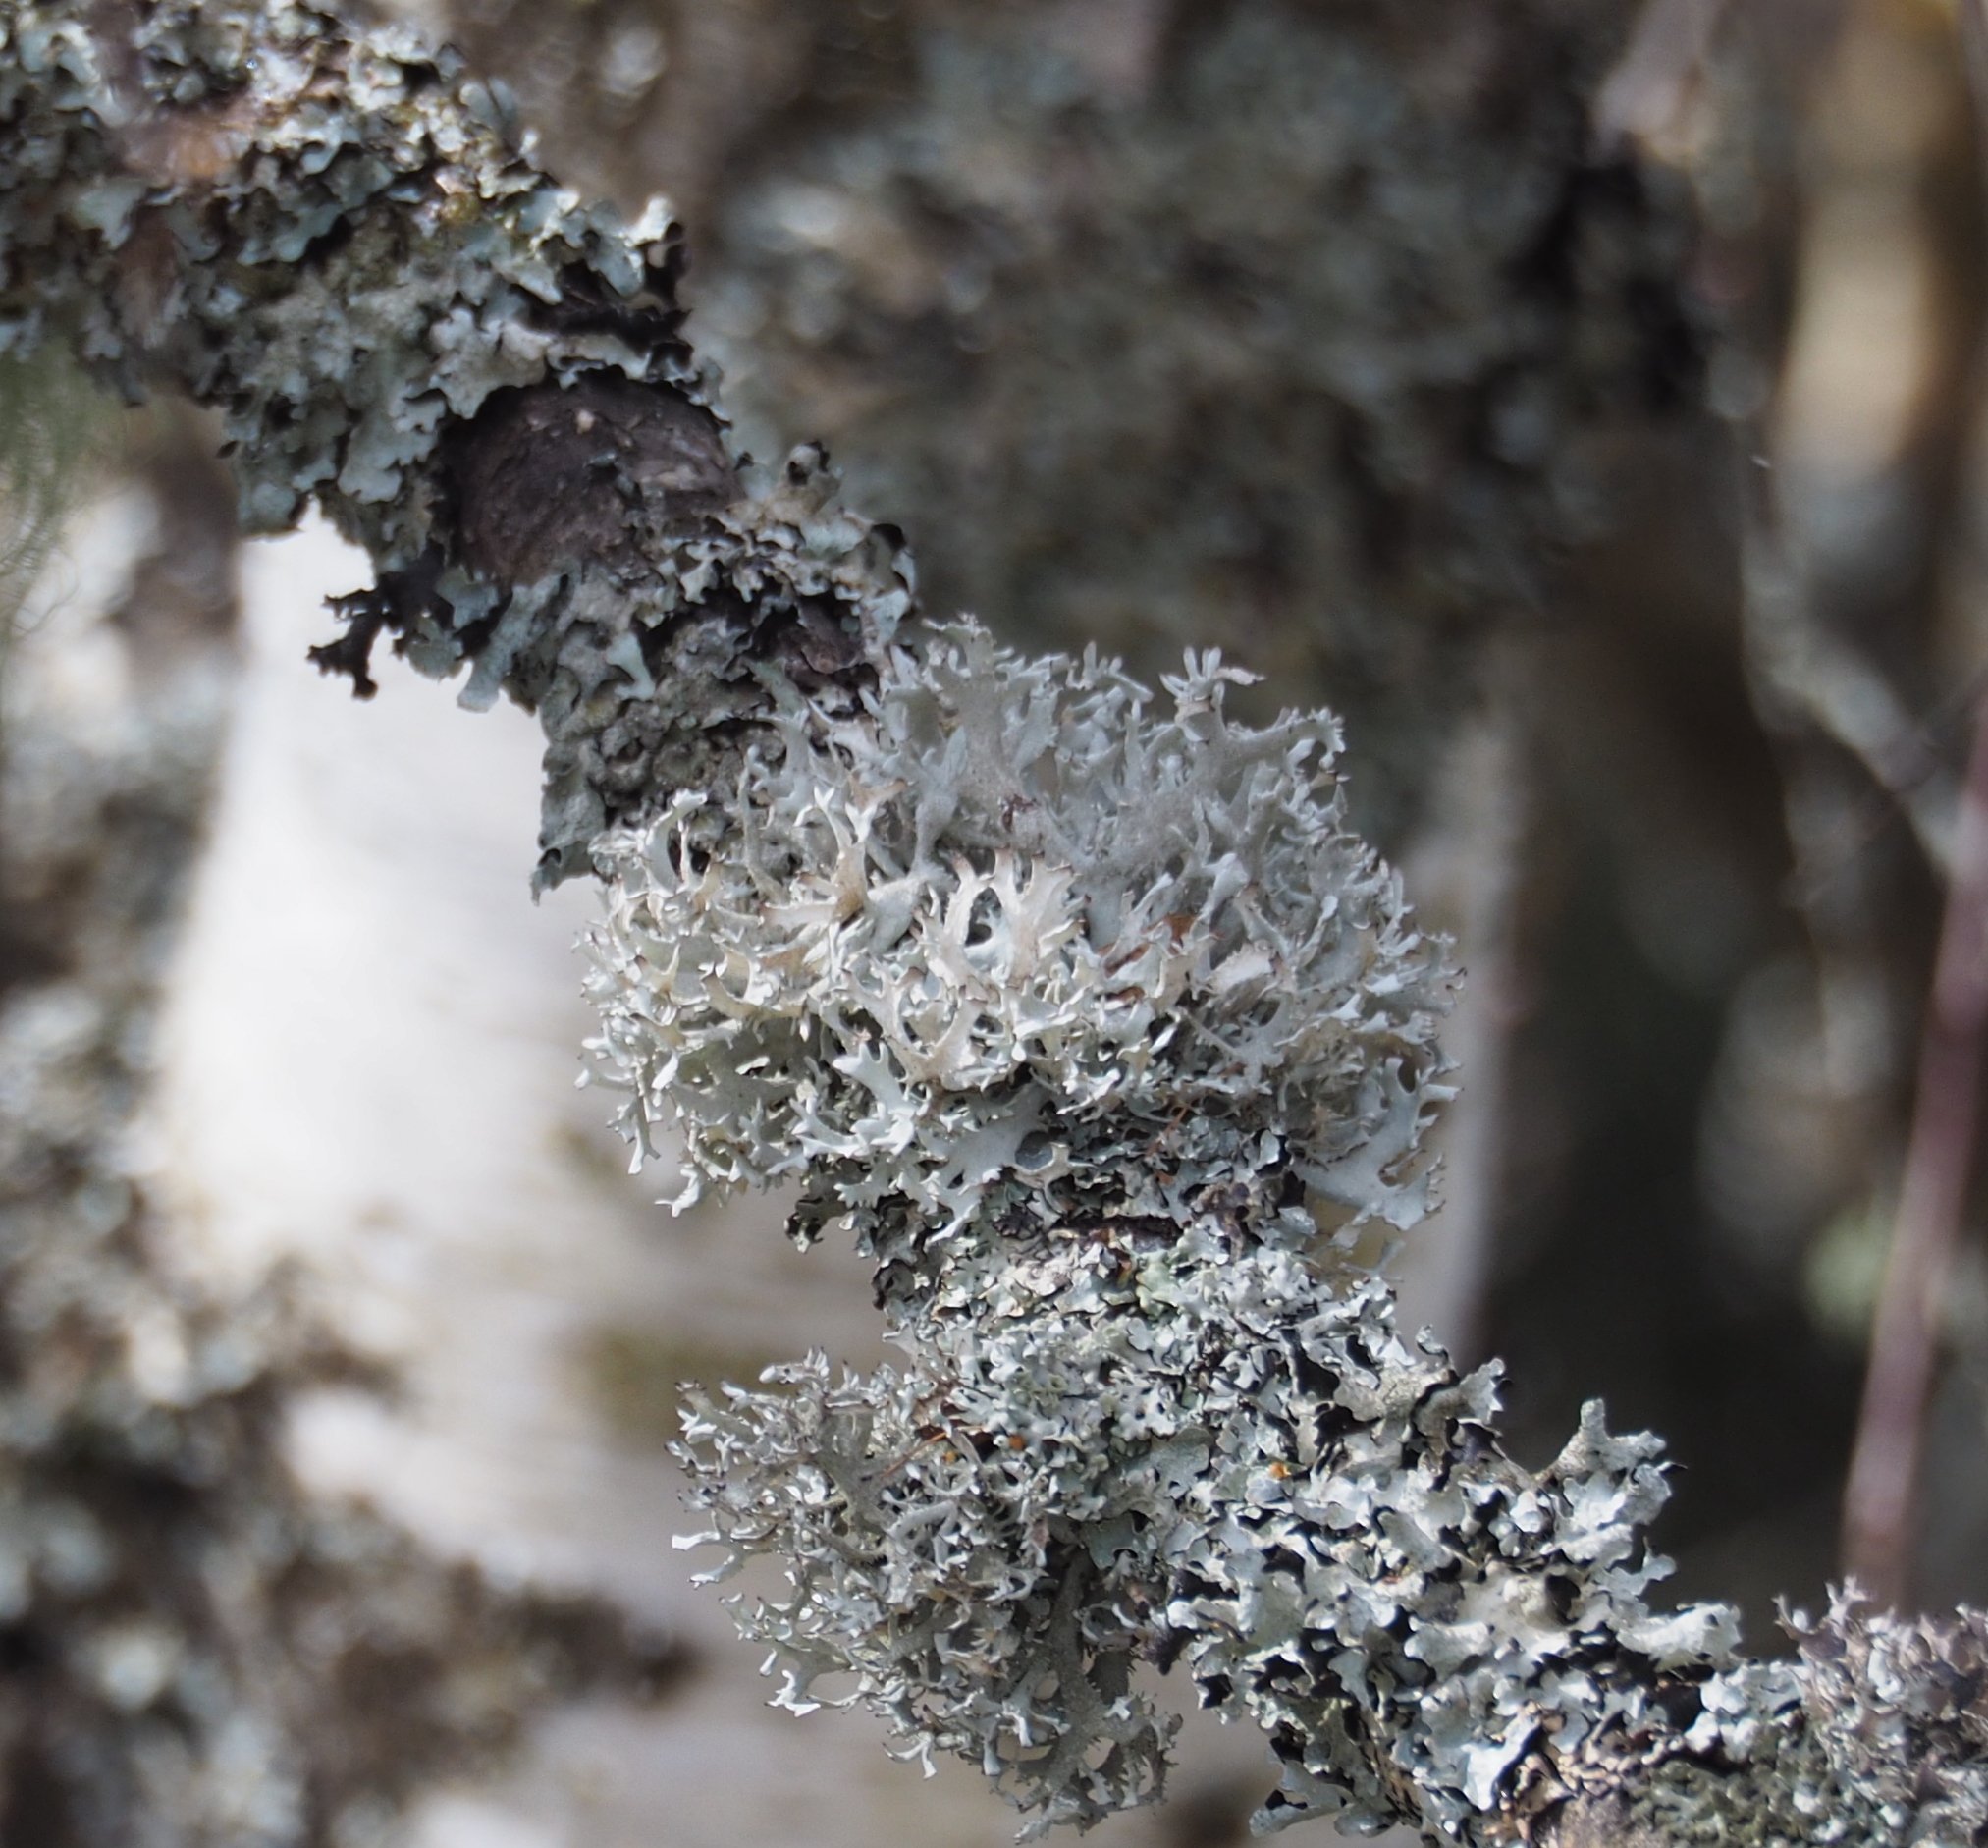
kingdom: Fungi
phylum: Ascomycota
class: Lecanoromycetes
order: Lecanorales
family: Parmeliaceae
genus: Pseudevernia
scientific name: Pseudevernia furfuracea
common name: Tree moss
